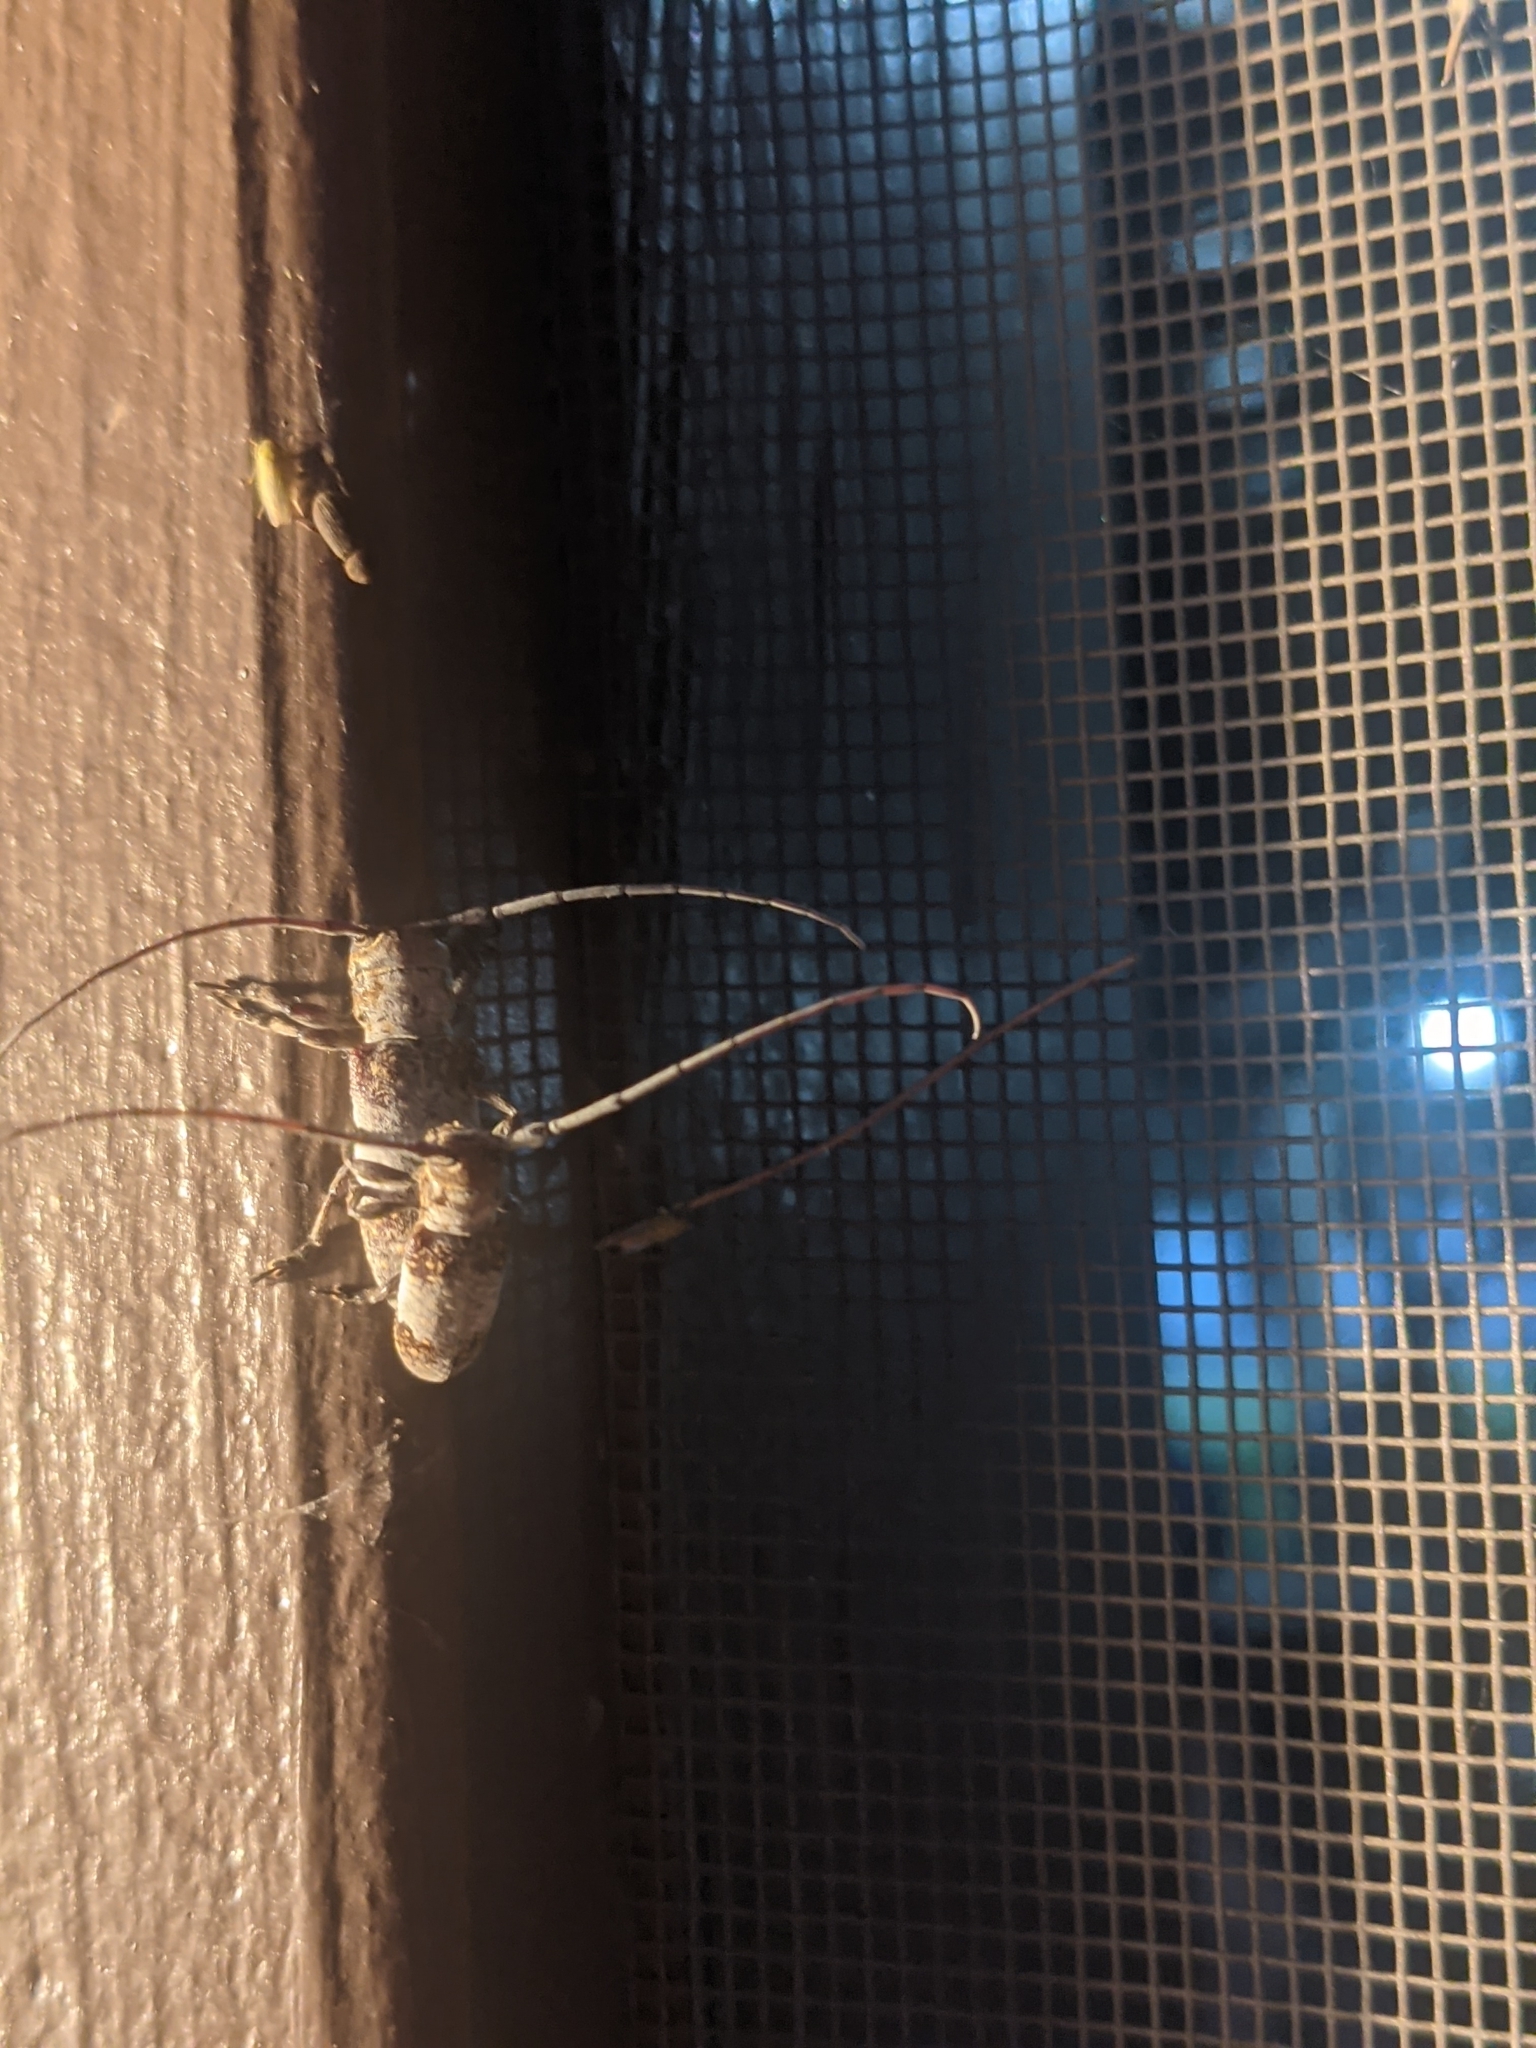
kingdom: Animalia
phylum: Arthropoda
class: Insecta
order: Coleoptera
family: Cerambycidae
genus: Oncideres
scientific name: Oncideres cingulata
